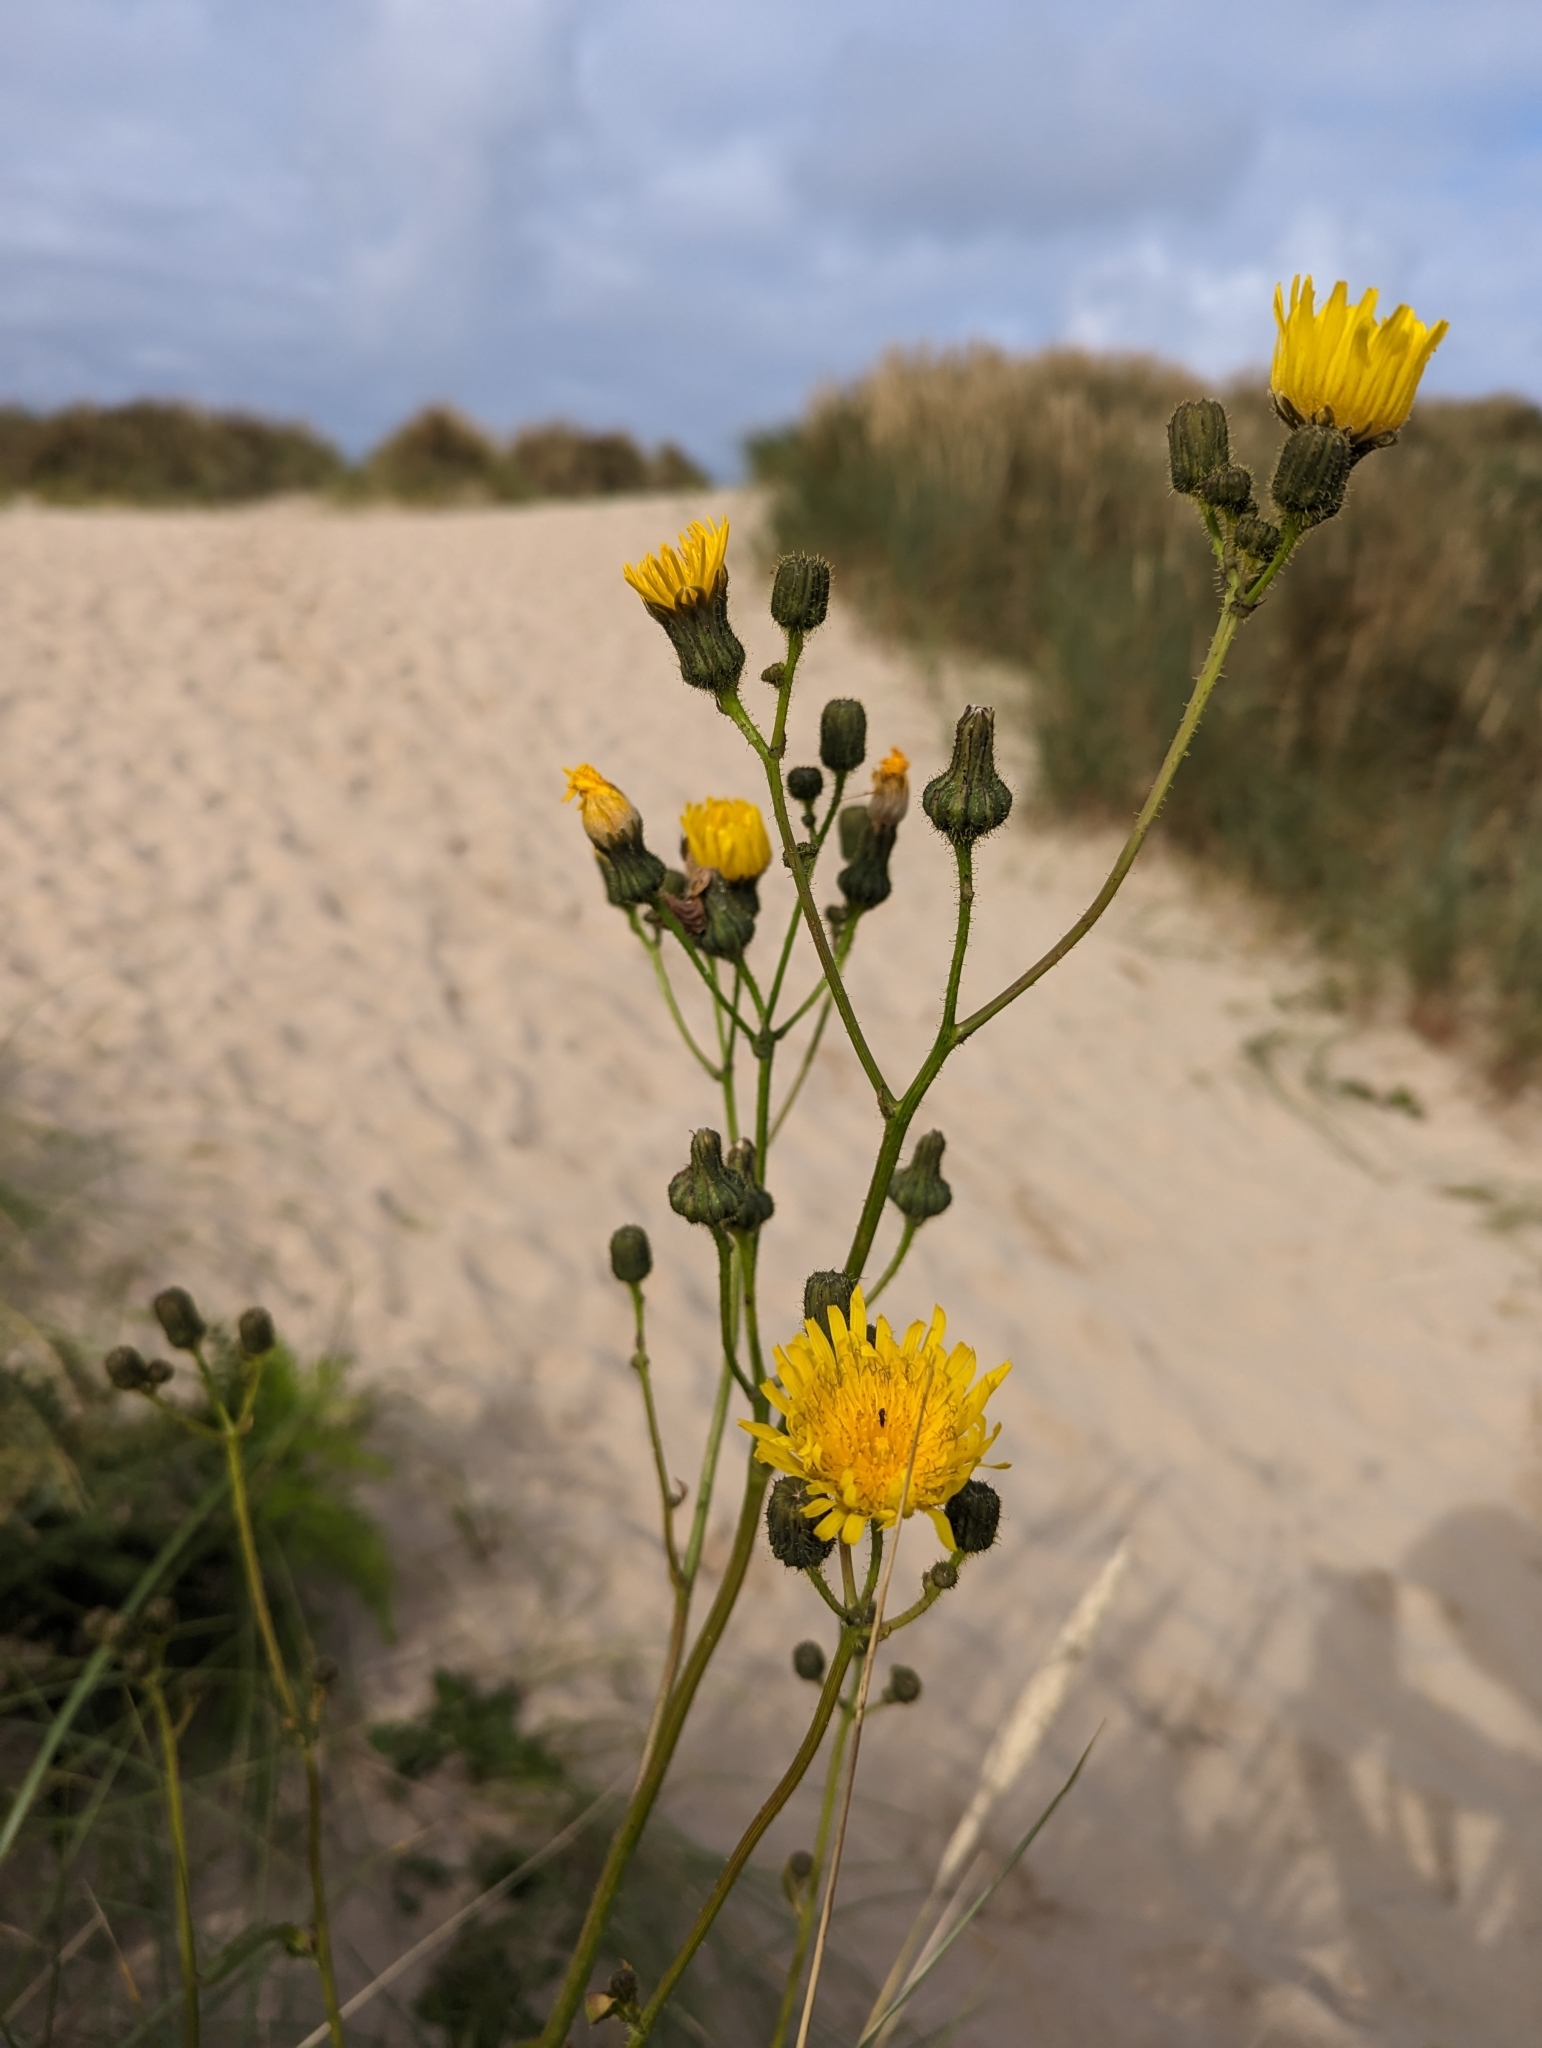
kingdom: Plantae
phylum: Tracheophyta
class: Magnoliopsida
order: Asterales
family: Asteraceae
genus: Sonchus
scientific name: Sonchus arvensis
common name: Perennial sow-thistle
